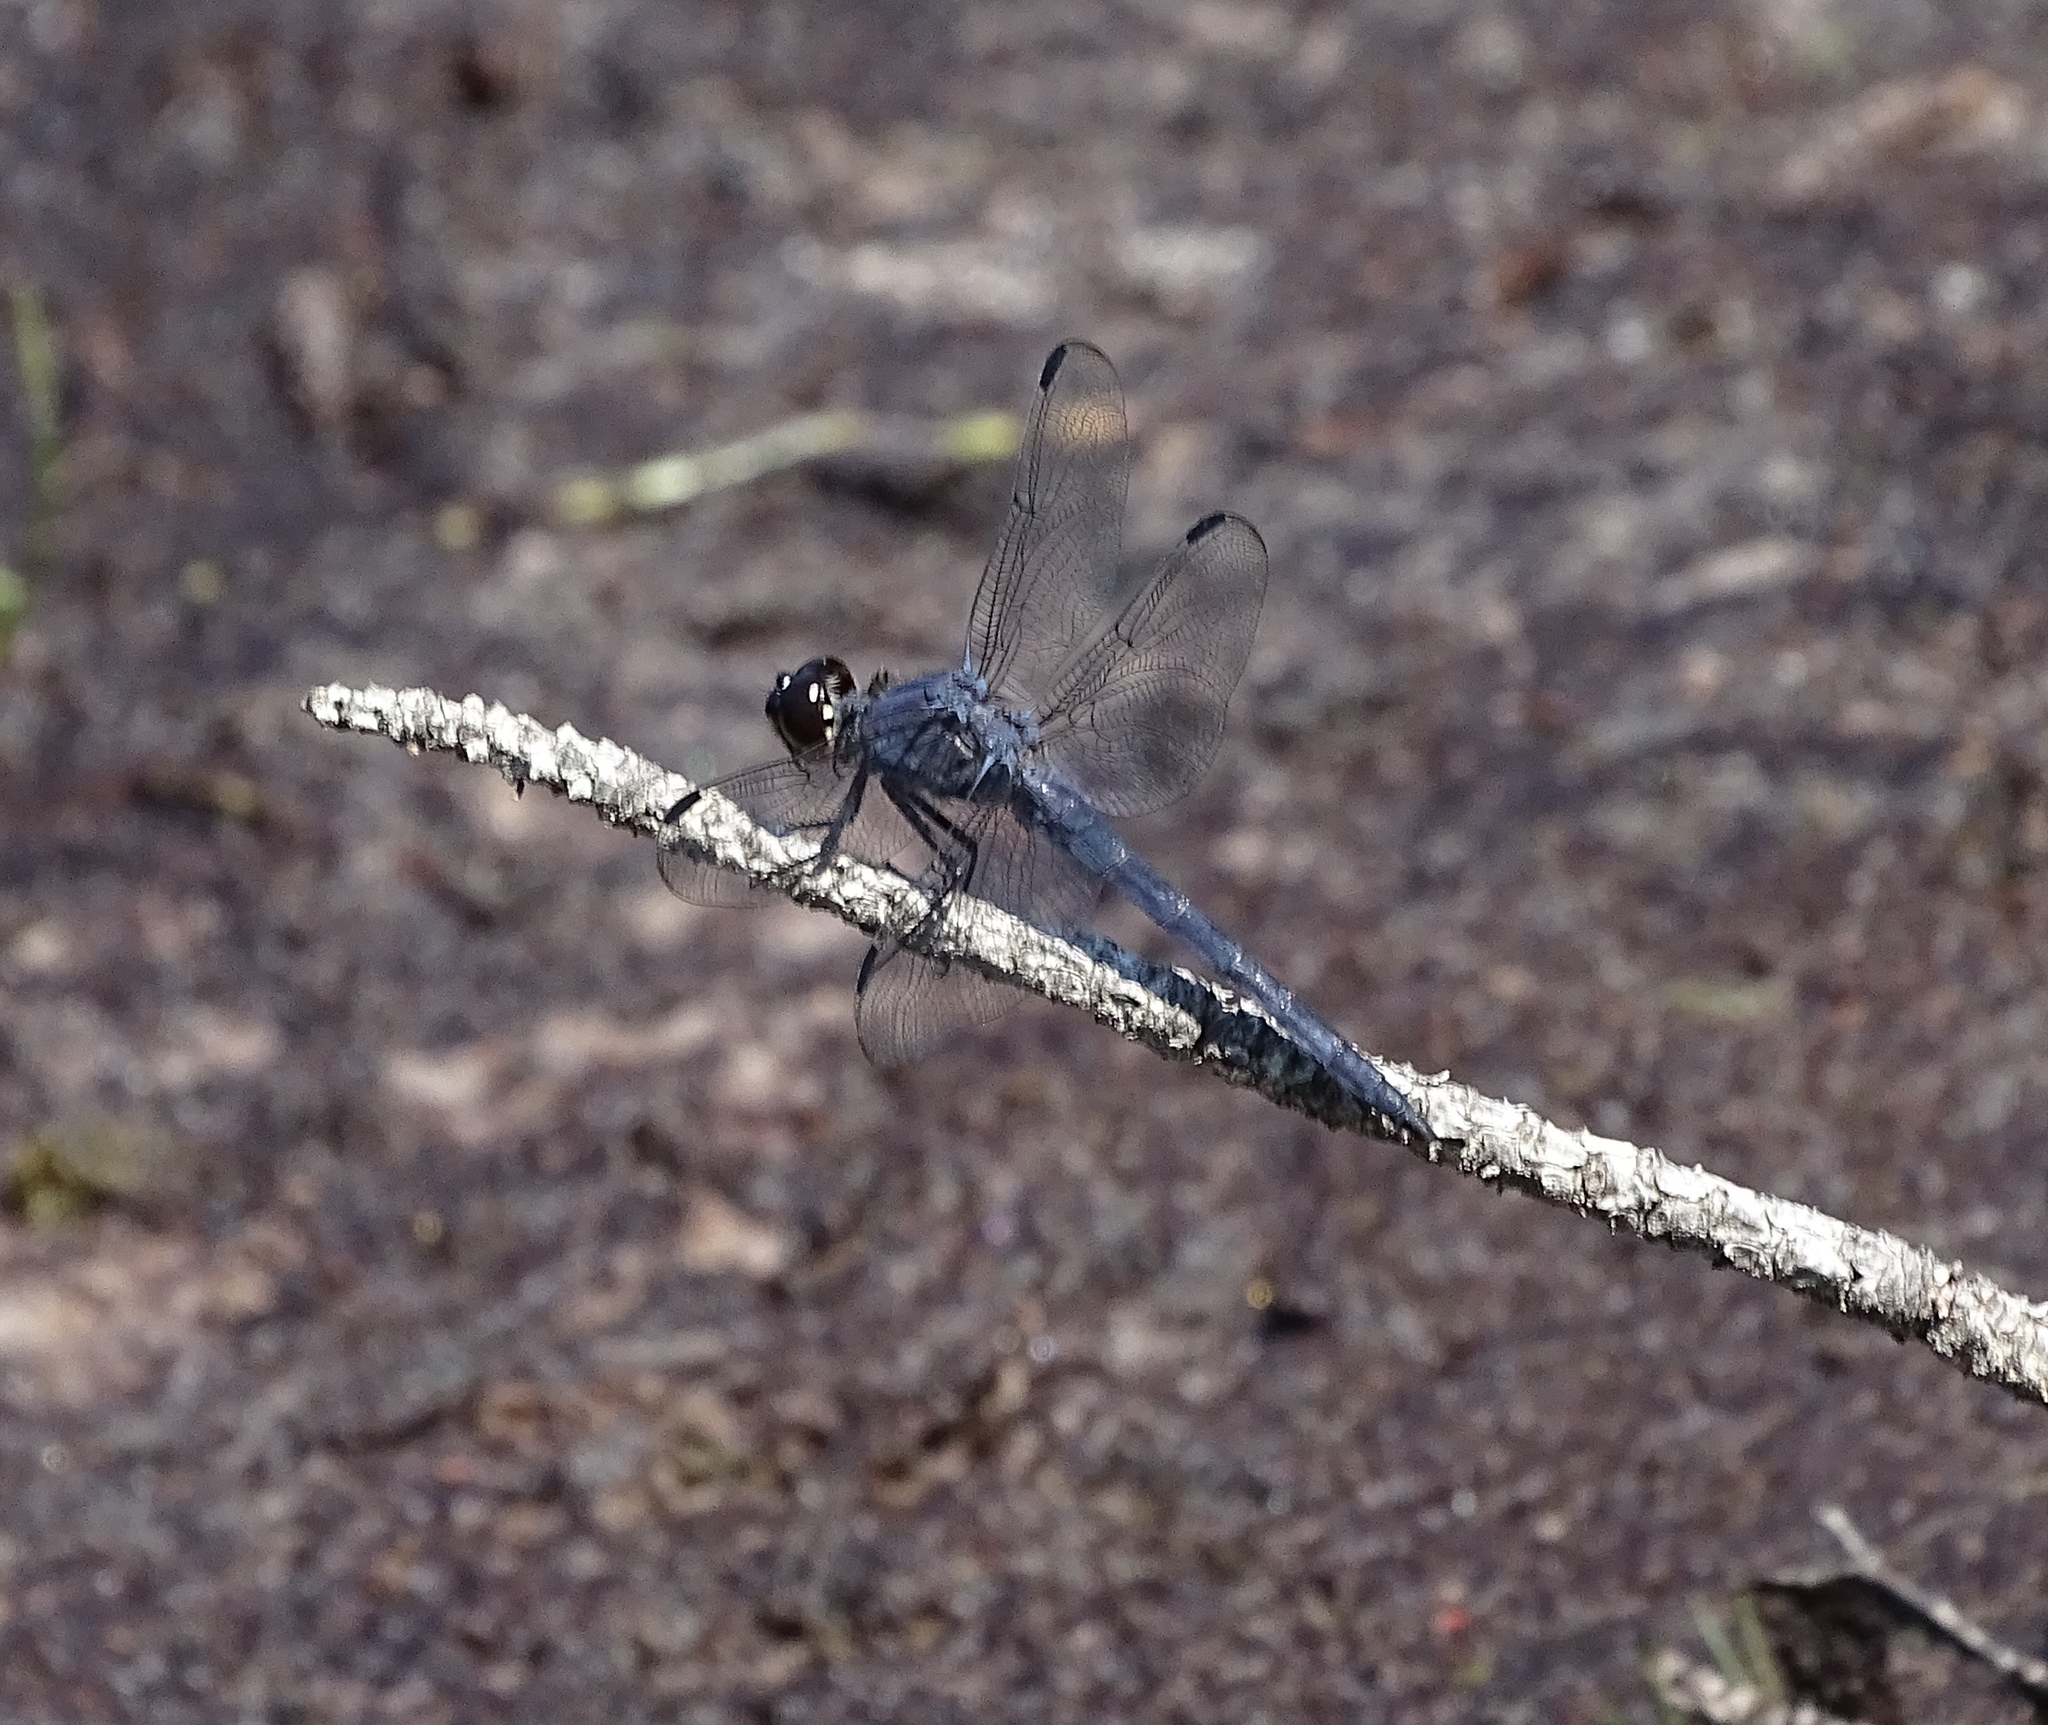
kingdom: Animalia
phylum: Arthropoda
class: Insecta
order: Odonata
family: Libellulidae
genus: Libellula
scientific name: Libellula incesta
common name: Slaty skimmer
